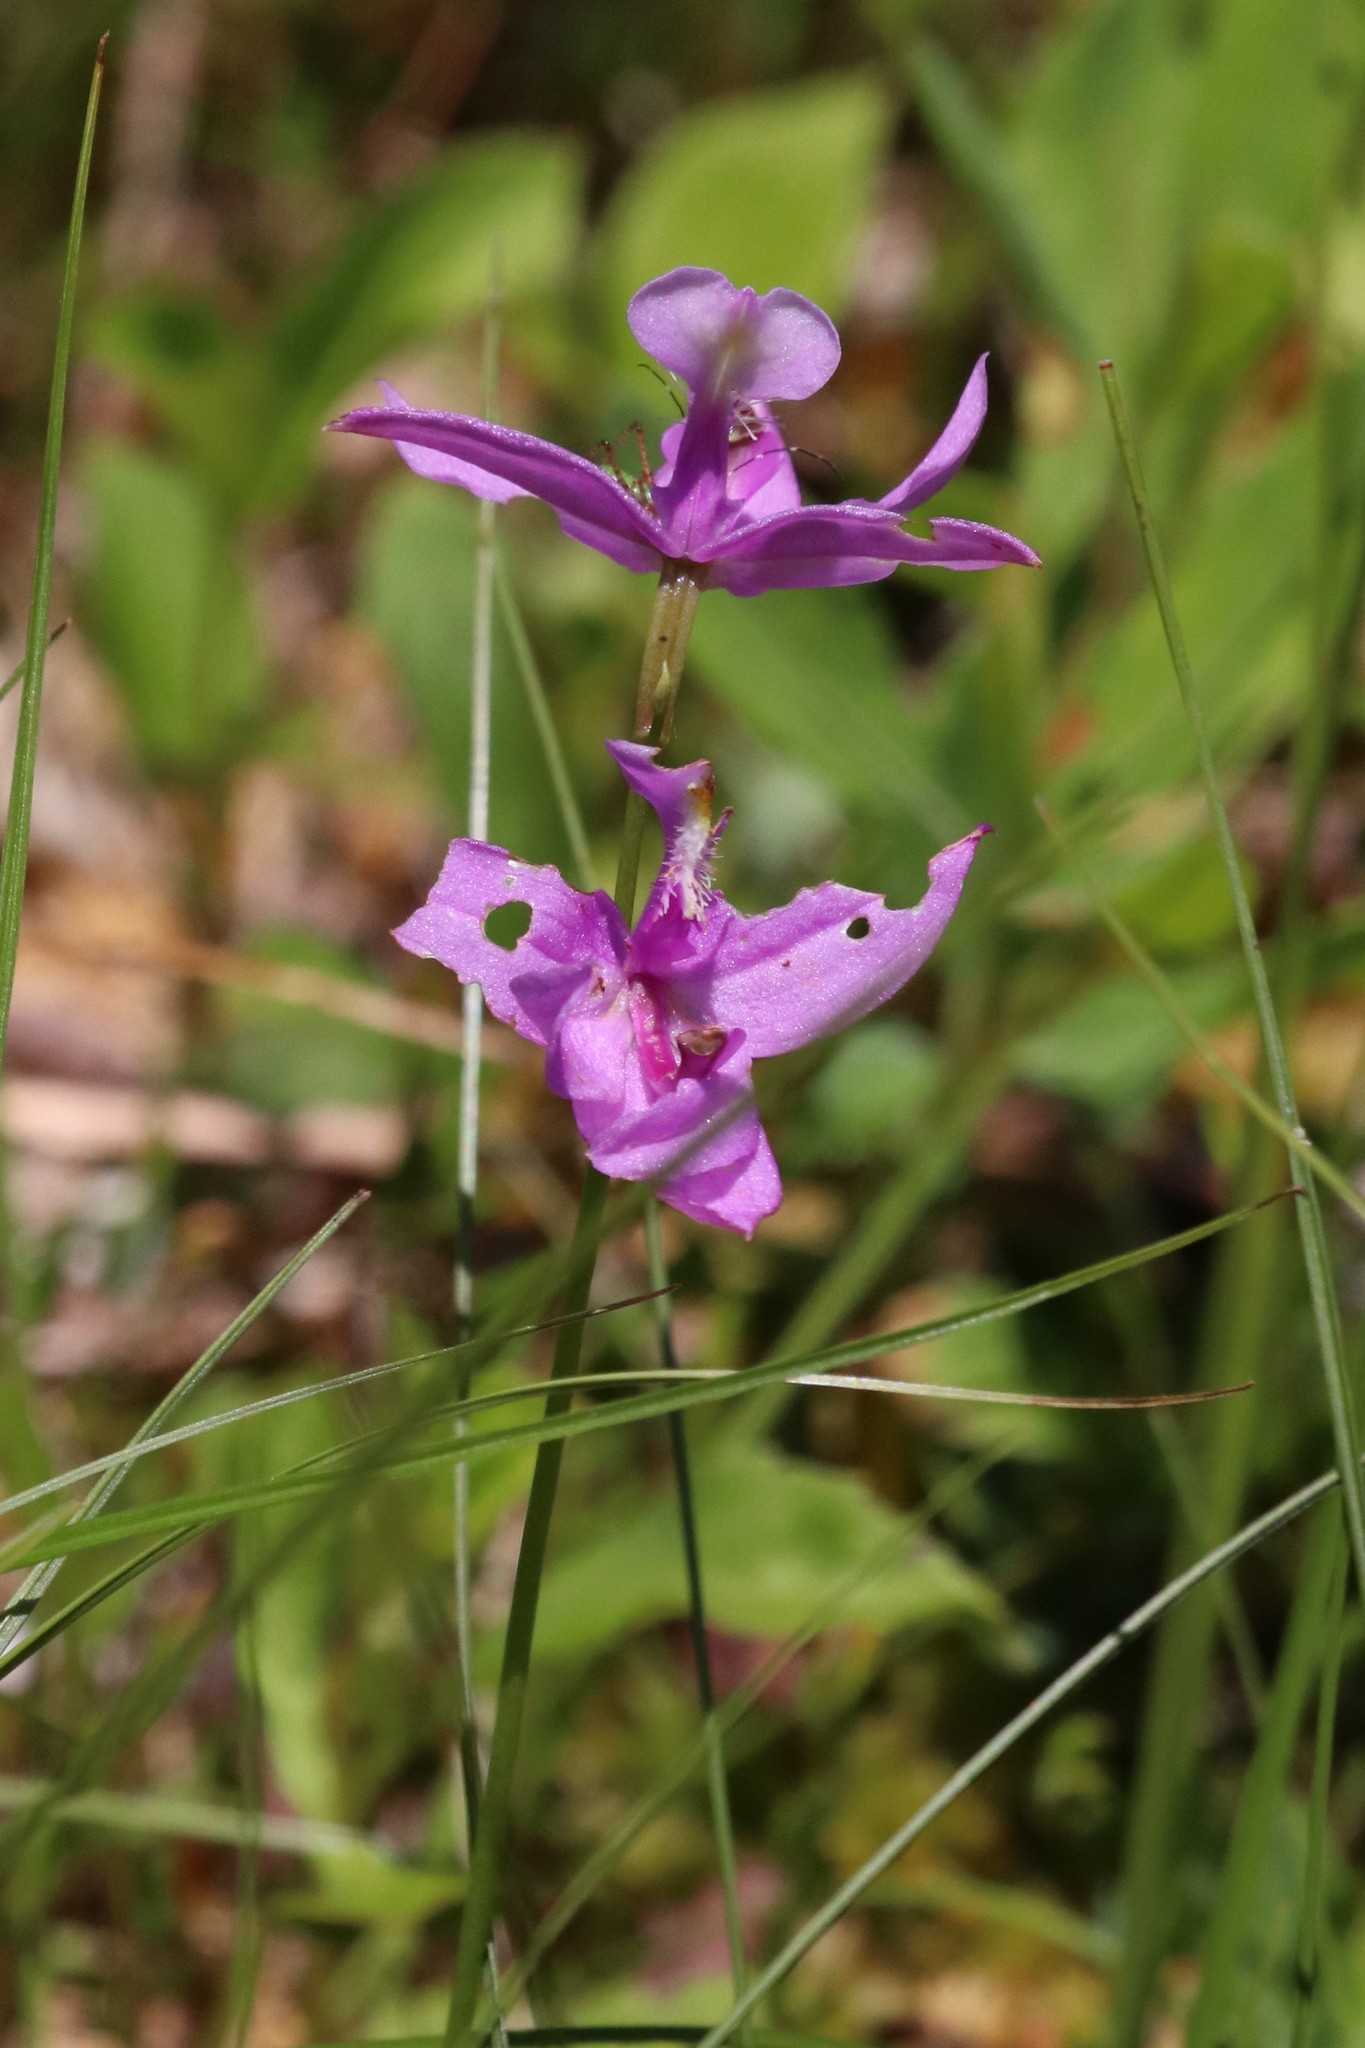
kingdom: Plantae
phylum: Tracheophyta
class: Liliopsida
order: Asparagales
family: Orchidaceae
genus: Calopogon
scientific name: Calopogon tuberosus
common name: Grass-pink
